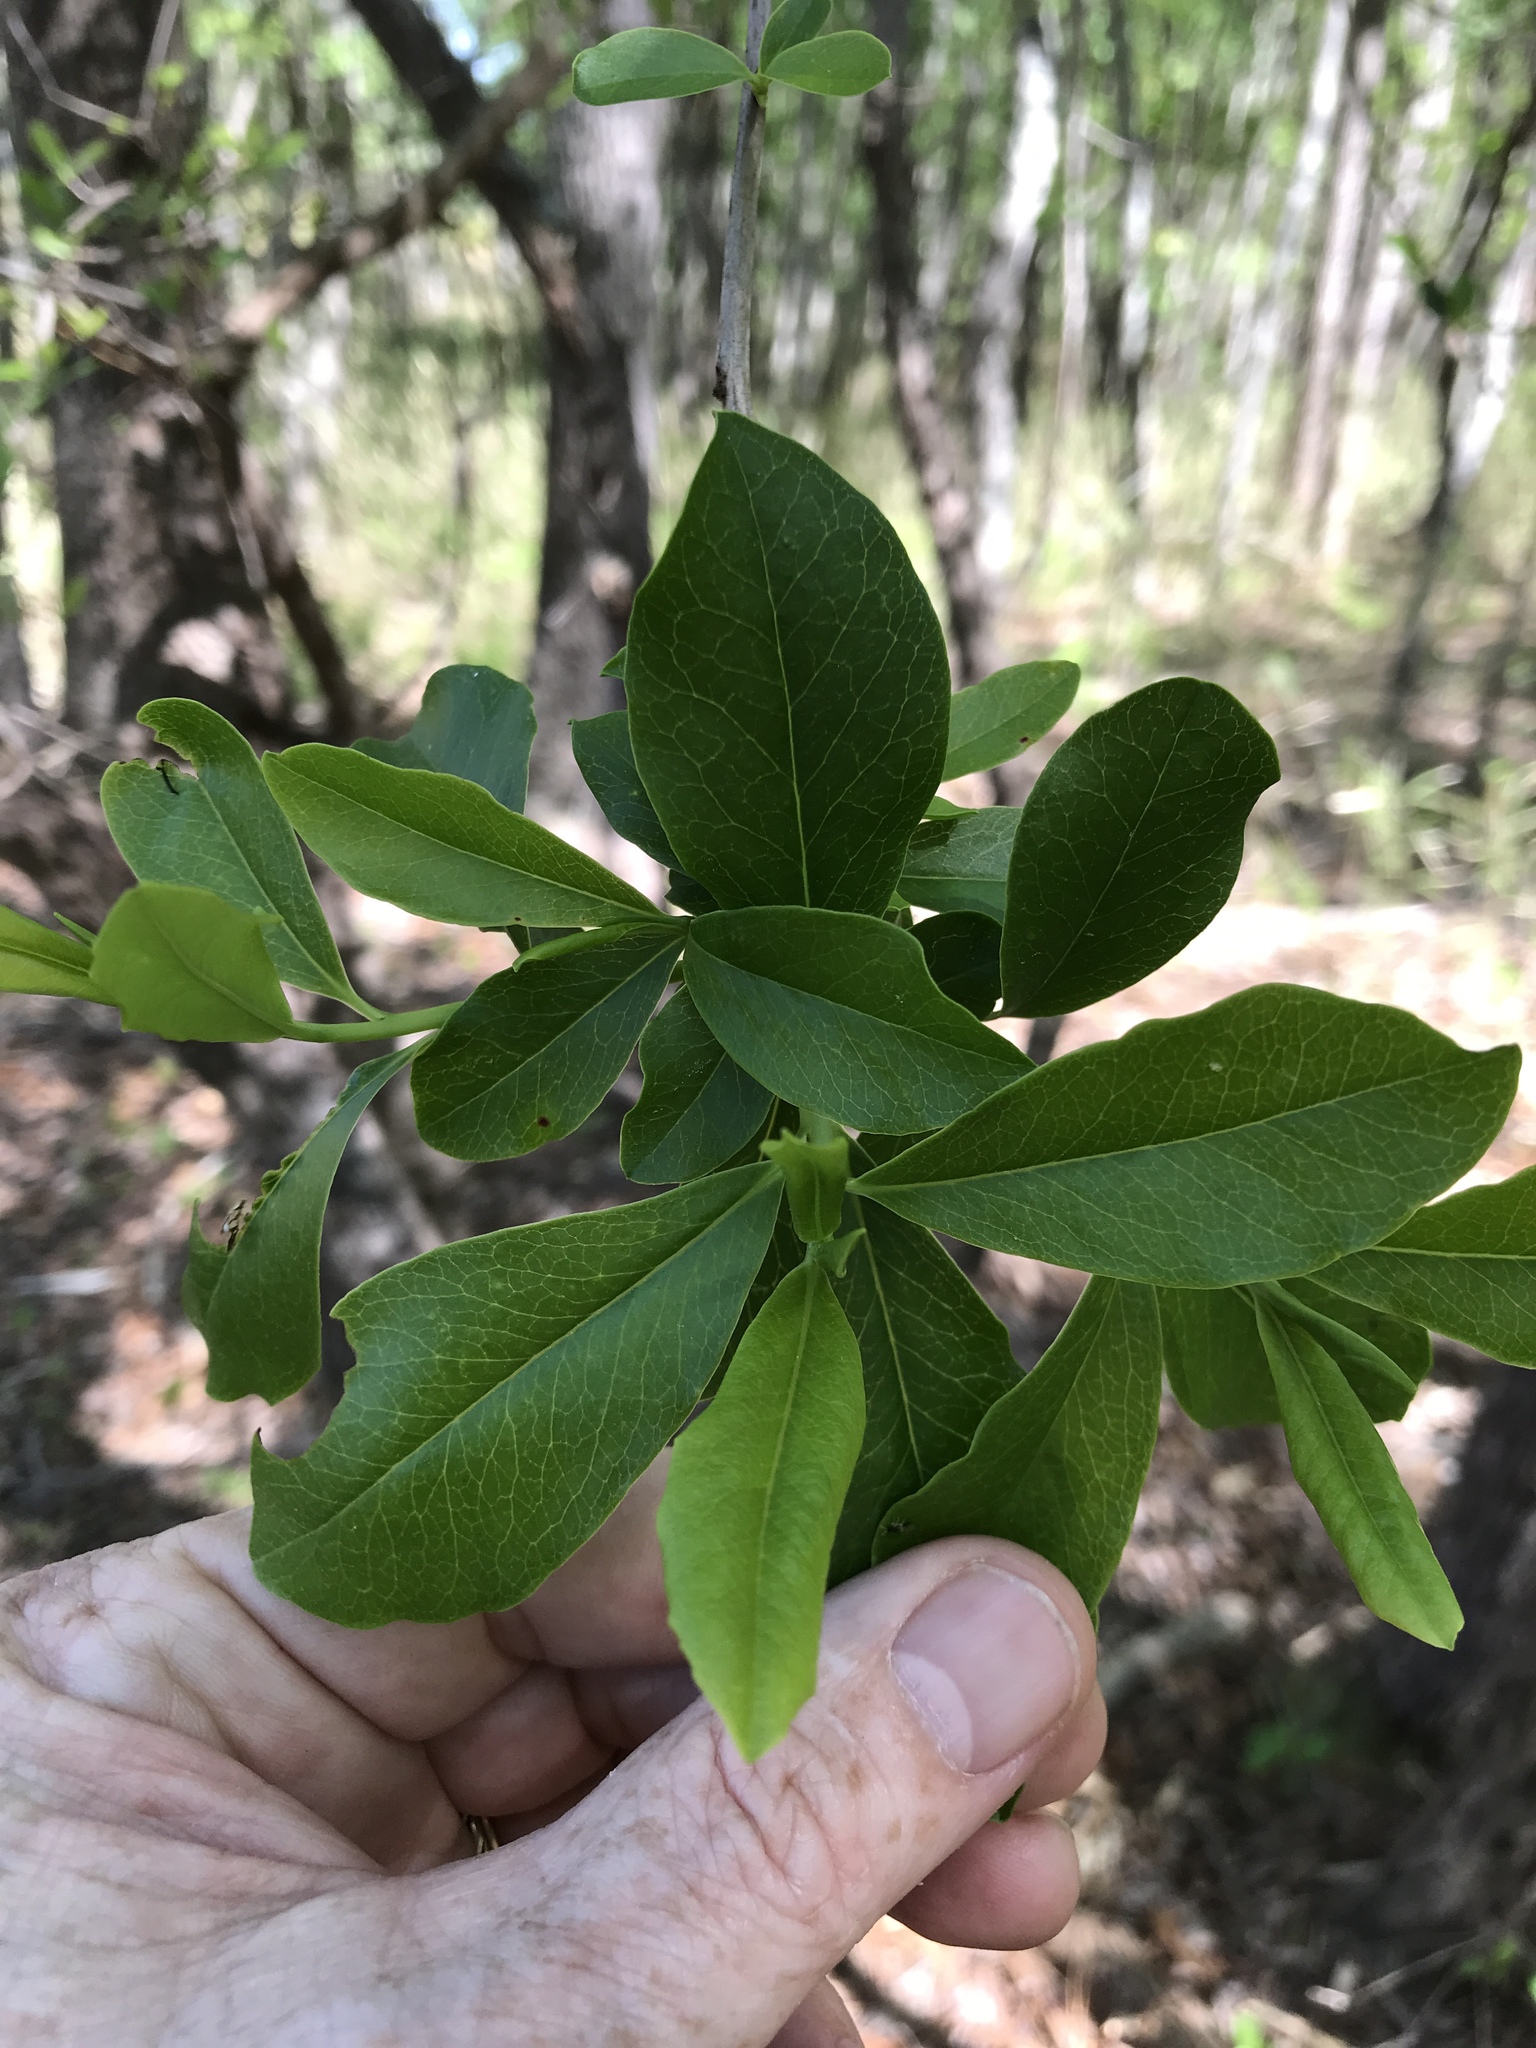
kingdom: Plantae
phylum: Tracheophyta
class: Magnoliopsida
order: Ericales
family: Cyrillaceae
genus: Cyrilla
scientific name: Cyrilla racemiflora
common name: Black titi
